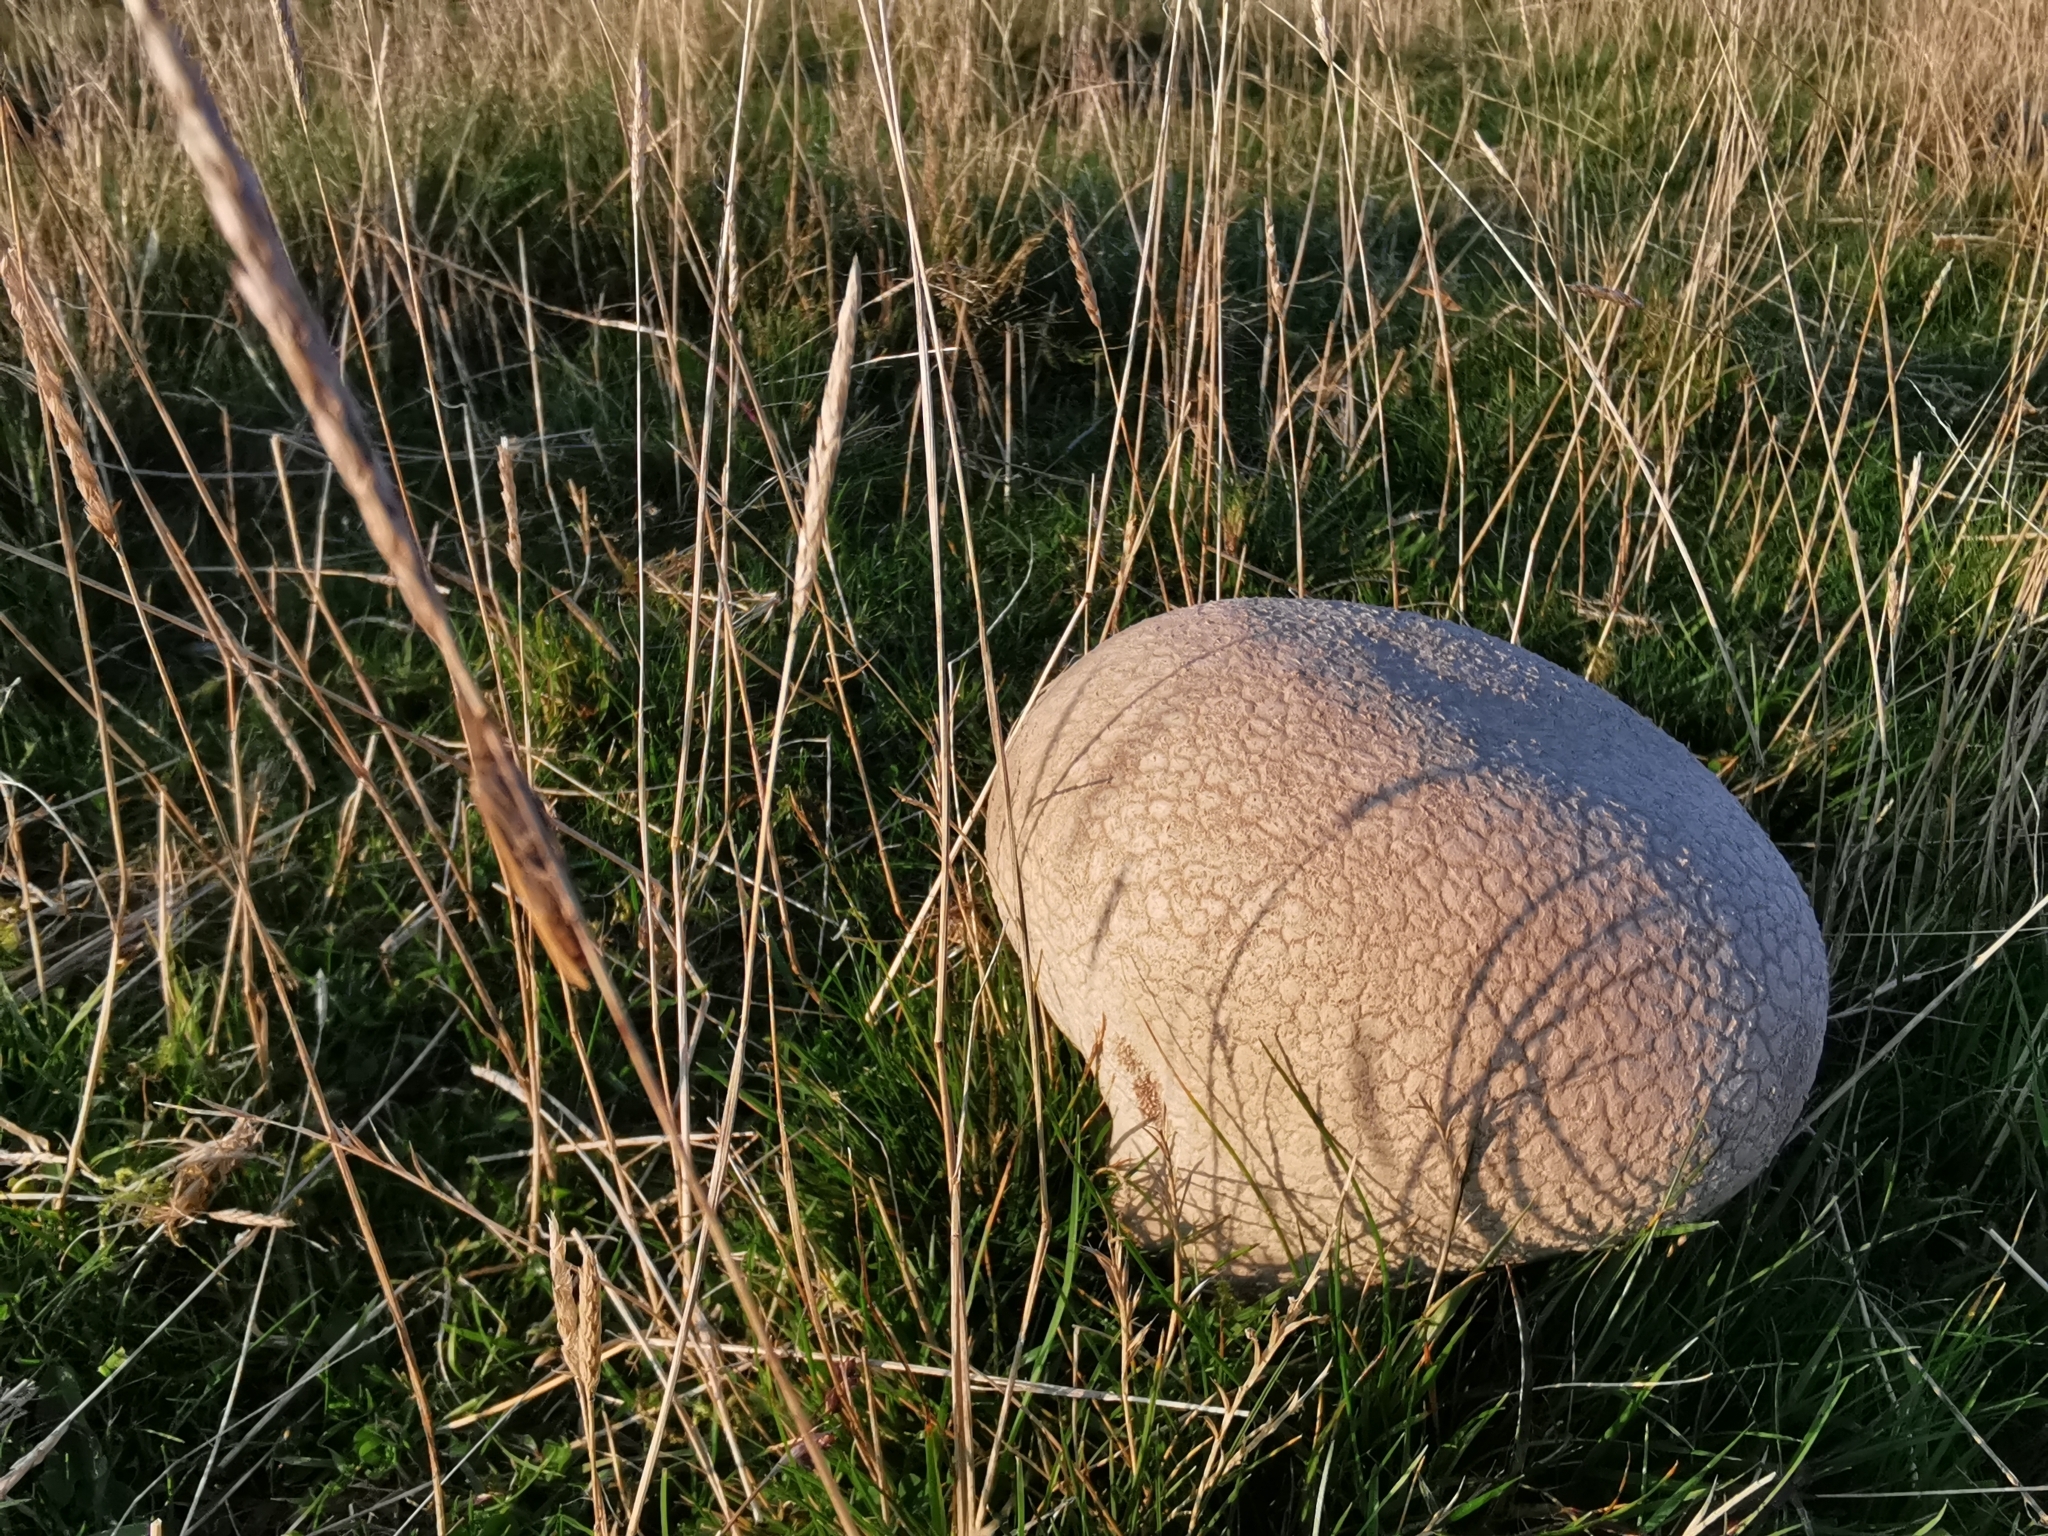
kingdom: Fungi
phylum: Basidiomycota
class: Agaricomycetes
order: Agaricales
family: Lycoperdaceae
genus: Bovistella
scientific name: Bovistella utriformis
